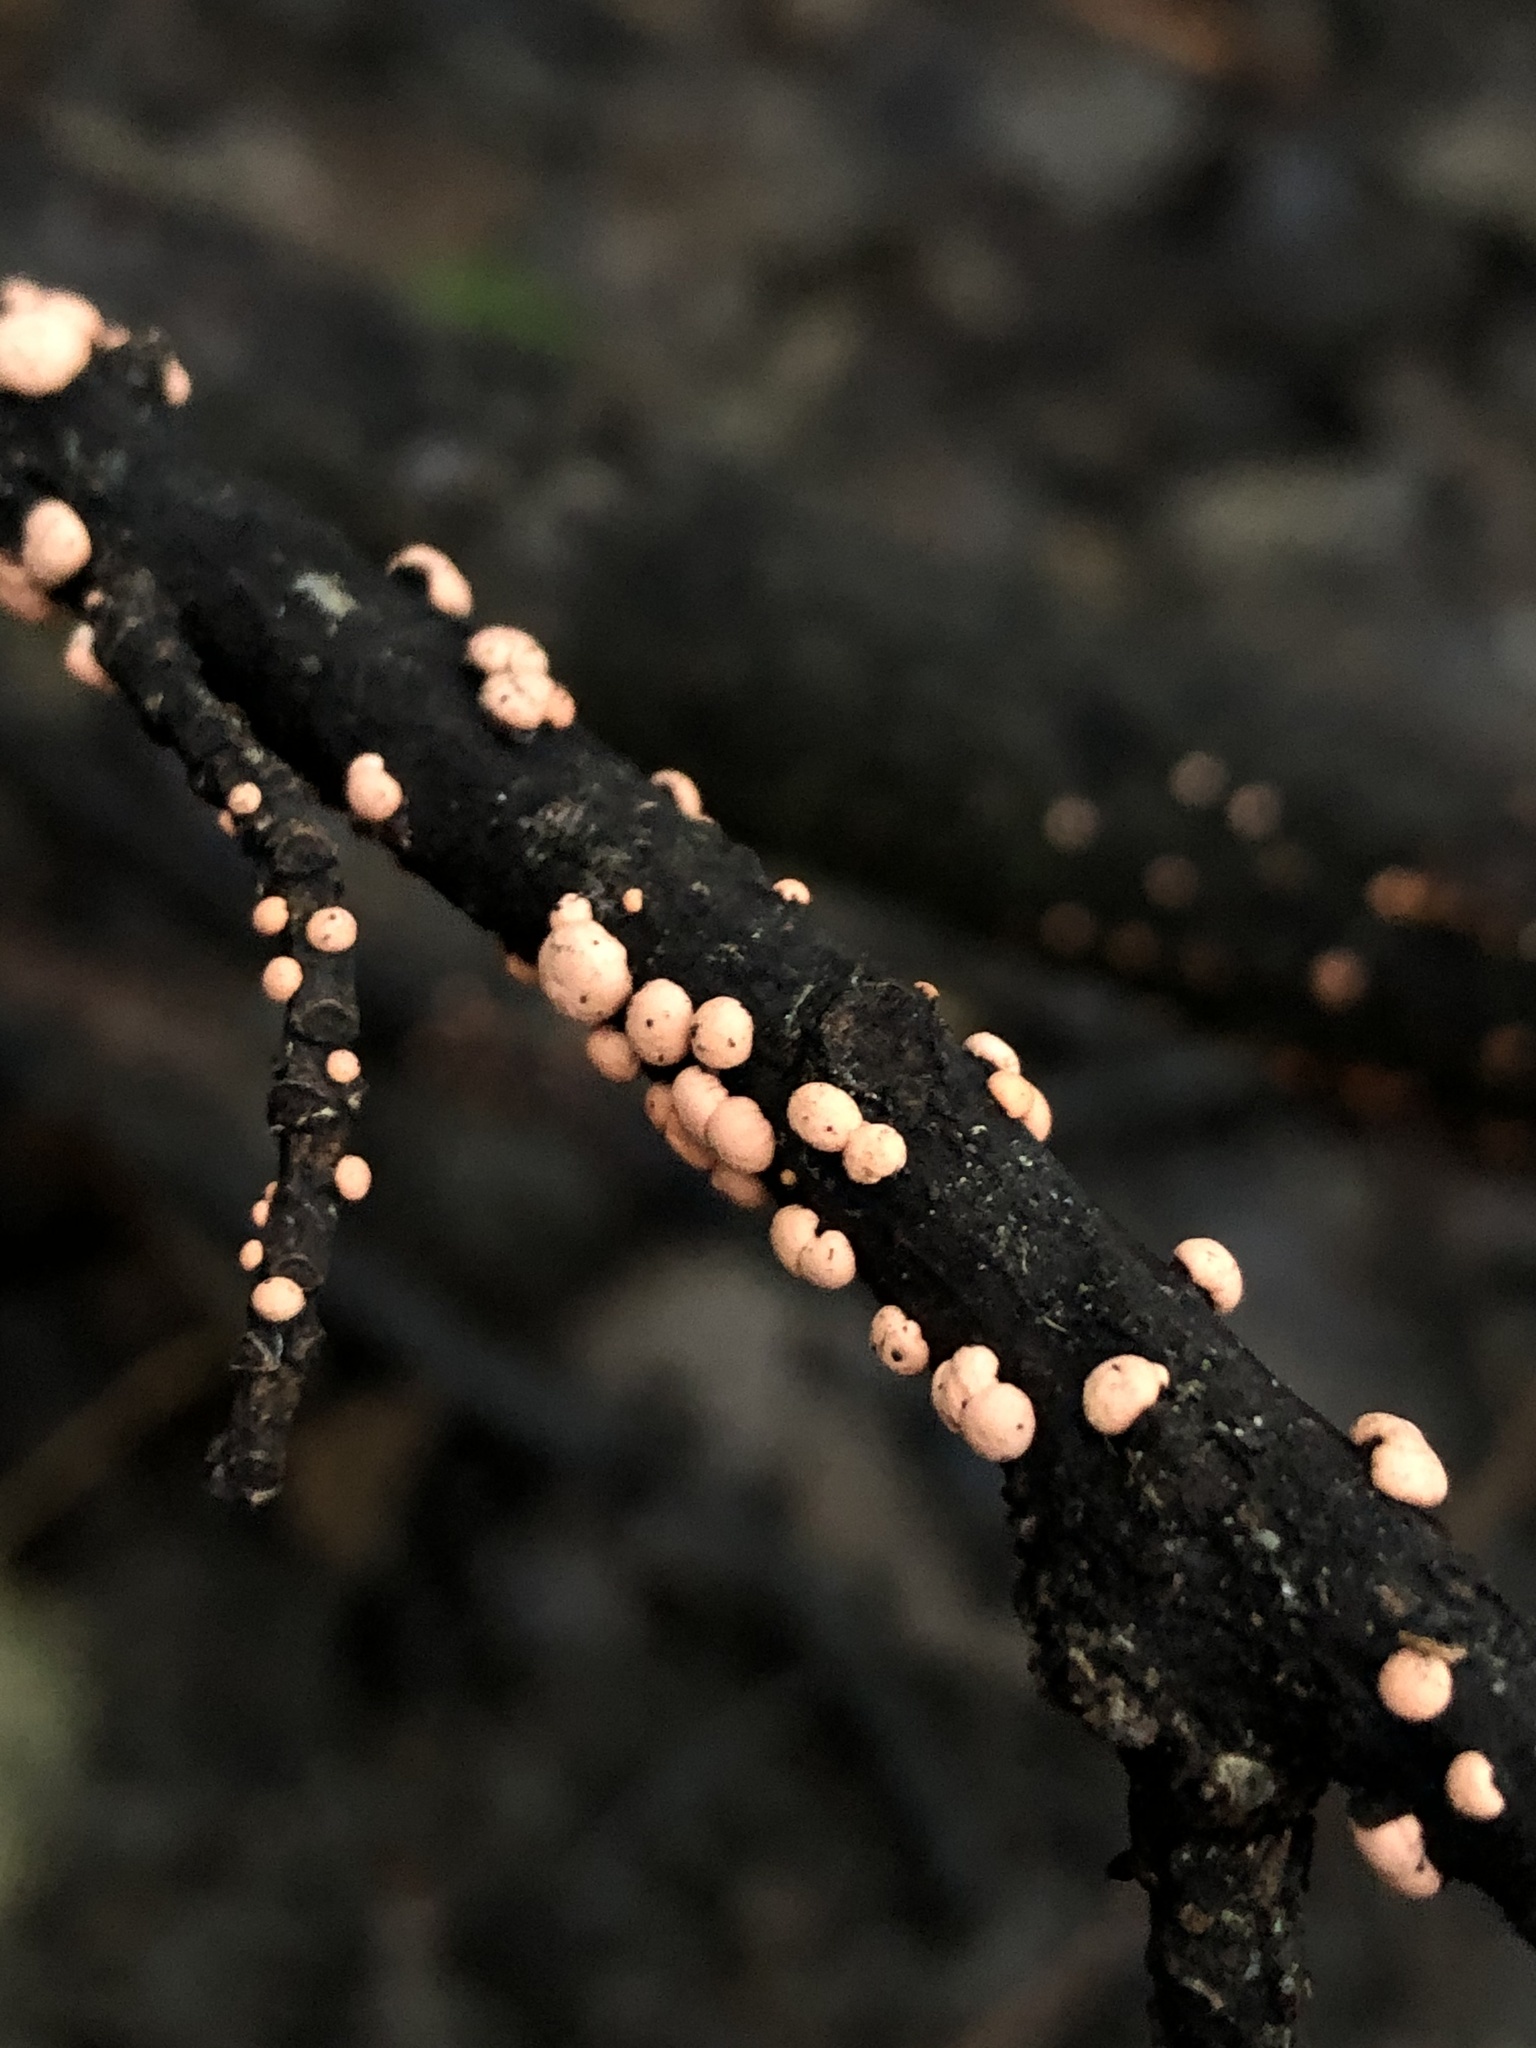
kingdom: Fungi
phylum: Ascomycota
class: Sordariomycetes
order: Hypocreales
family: Nectriaceae
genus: Nectria
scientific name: Nectria cinnabarina
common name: Coral spot
